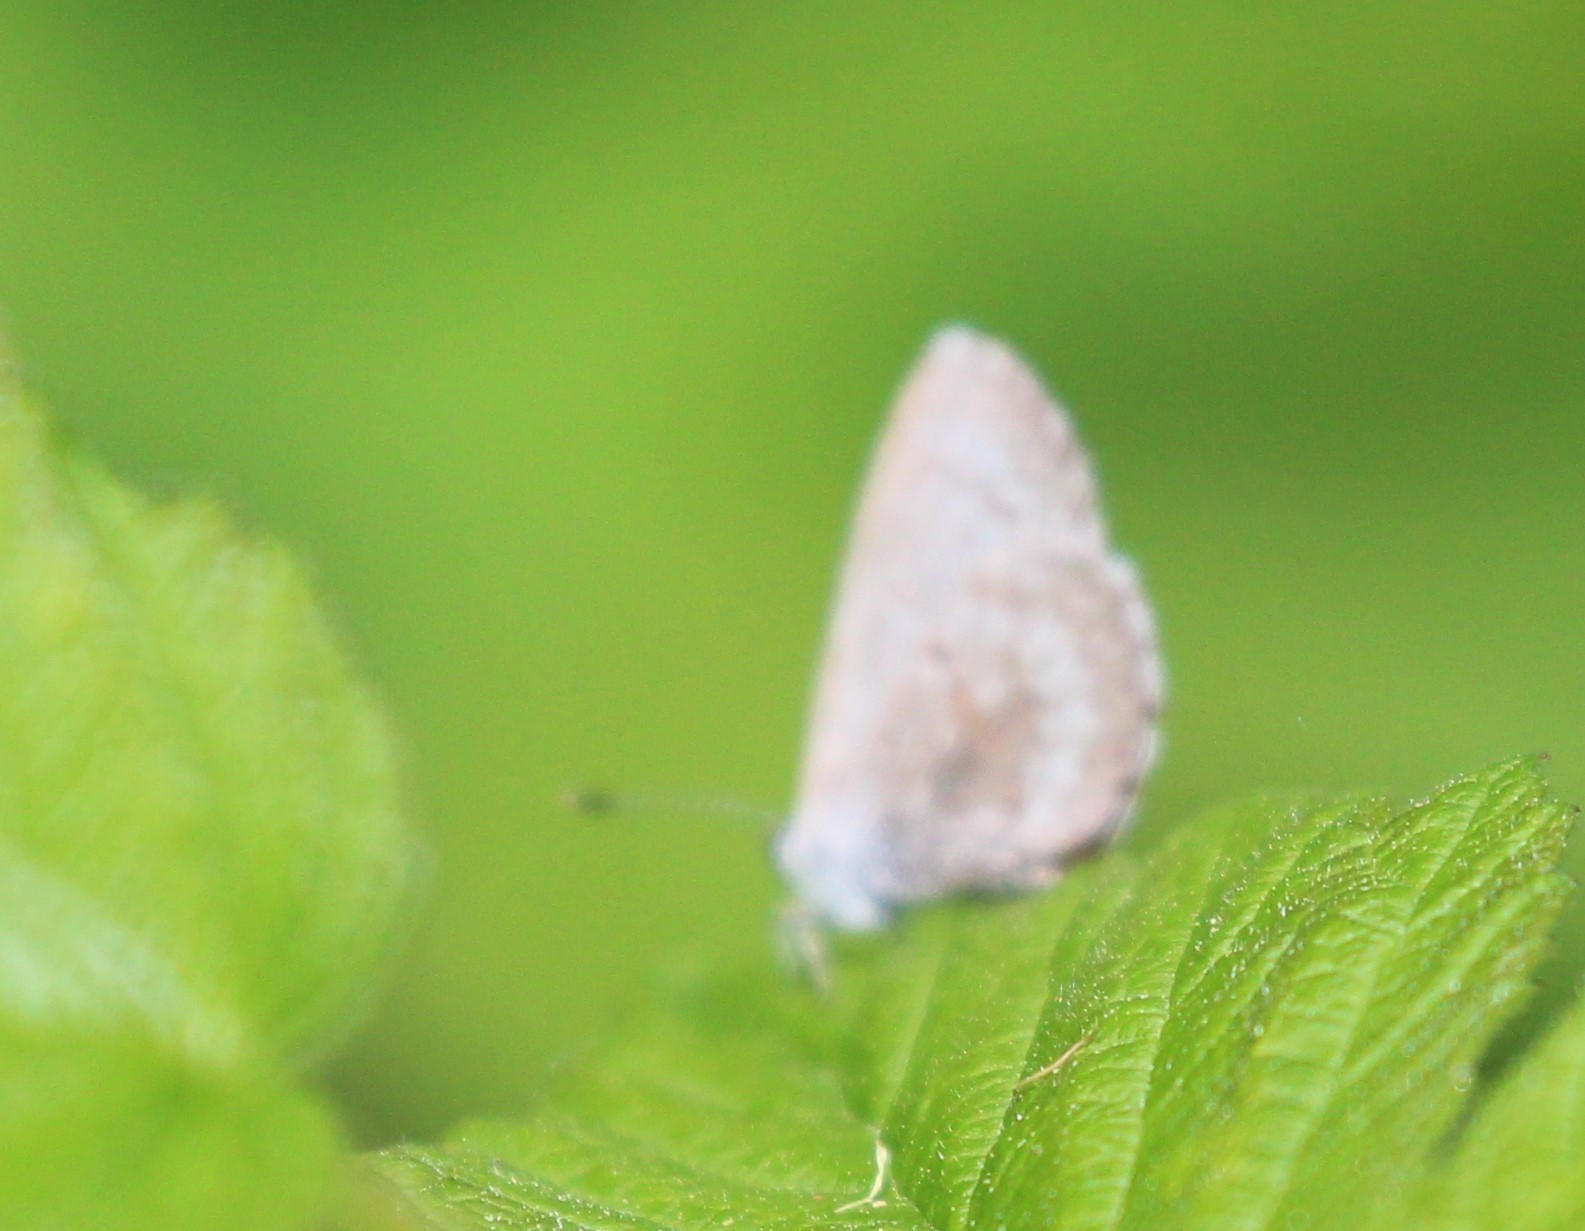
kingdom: Animalia
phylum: Arthropoda
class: Insecta
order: Lepidoptera
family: Lycaenidae
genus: Celastrina
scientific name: Celastrina lucia
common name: Lucia azure
